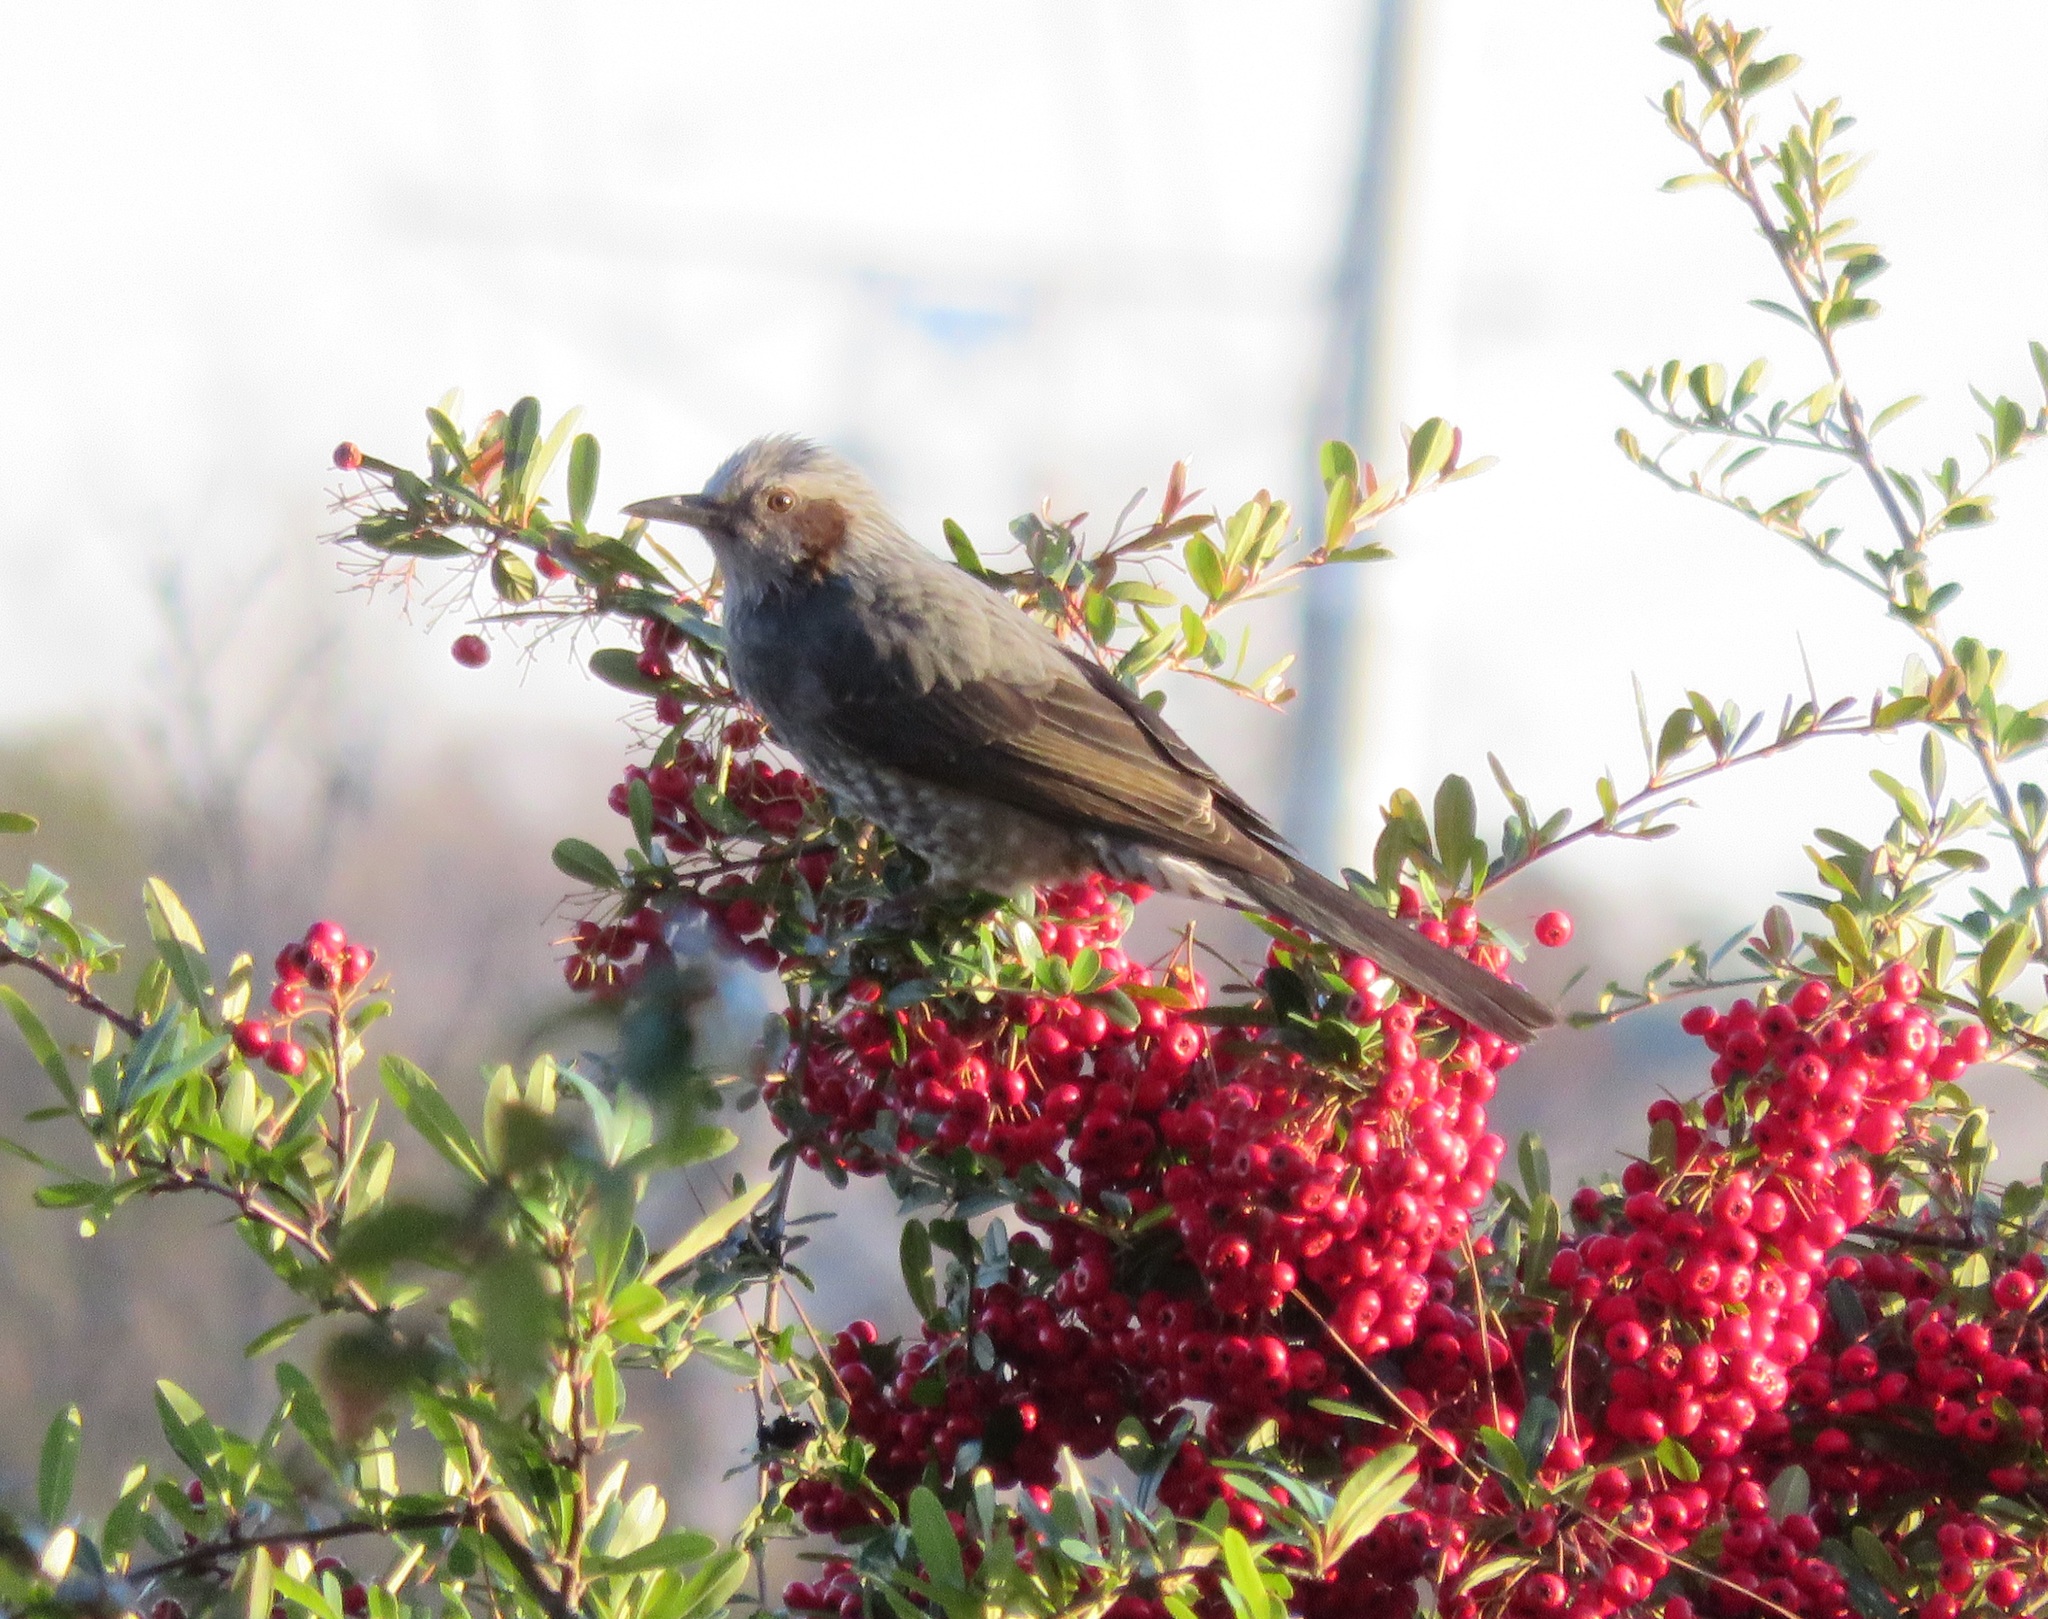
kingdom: Animalia
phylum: Chordata
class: Aves
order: Passeriformes
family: Pycnonotidae
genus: Hypsipetes
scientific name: Hypsipetes amaurotis
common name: Brown-eared bulbul
